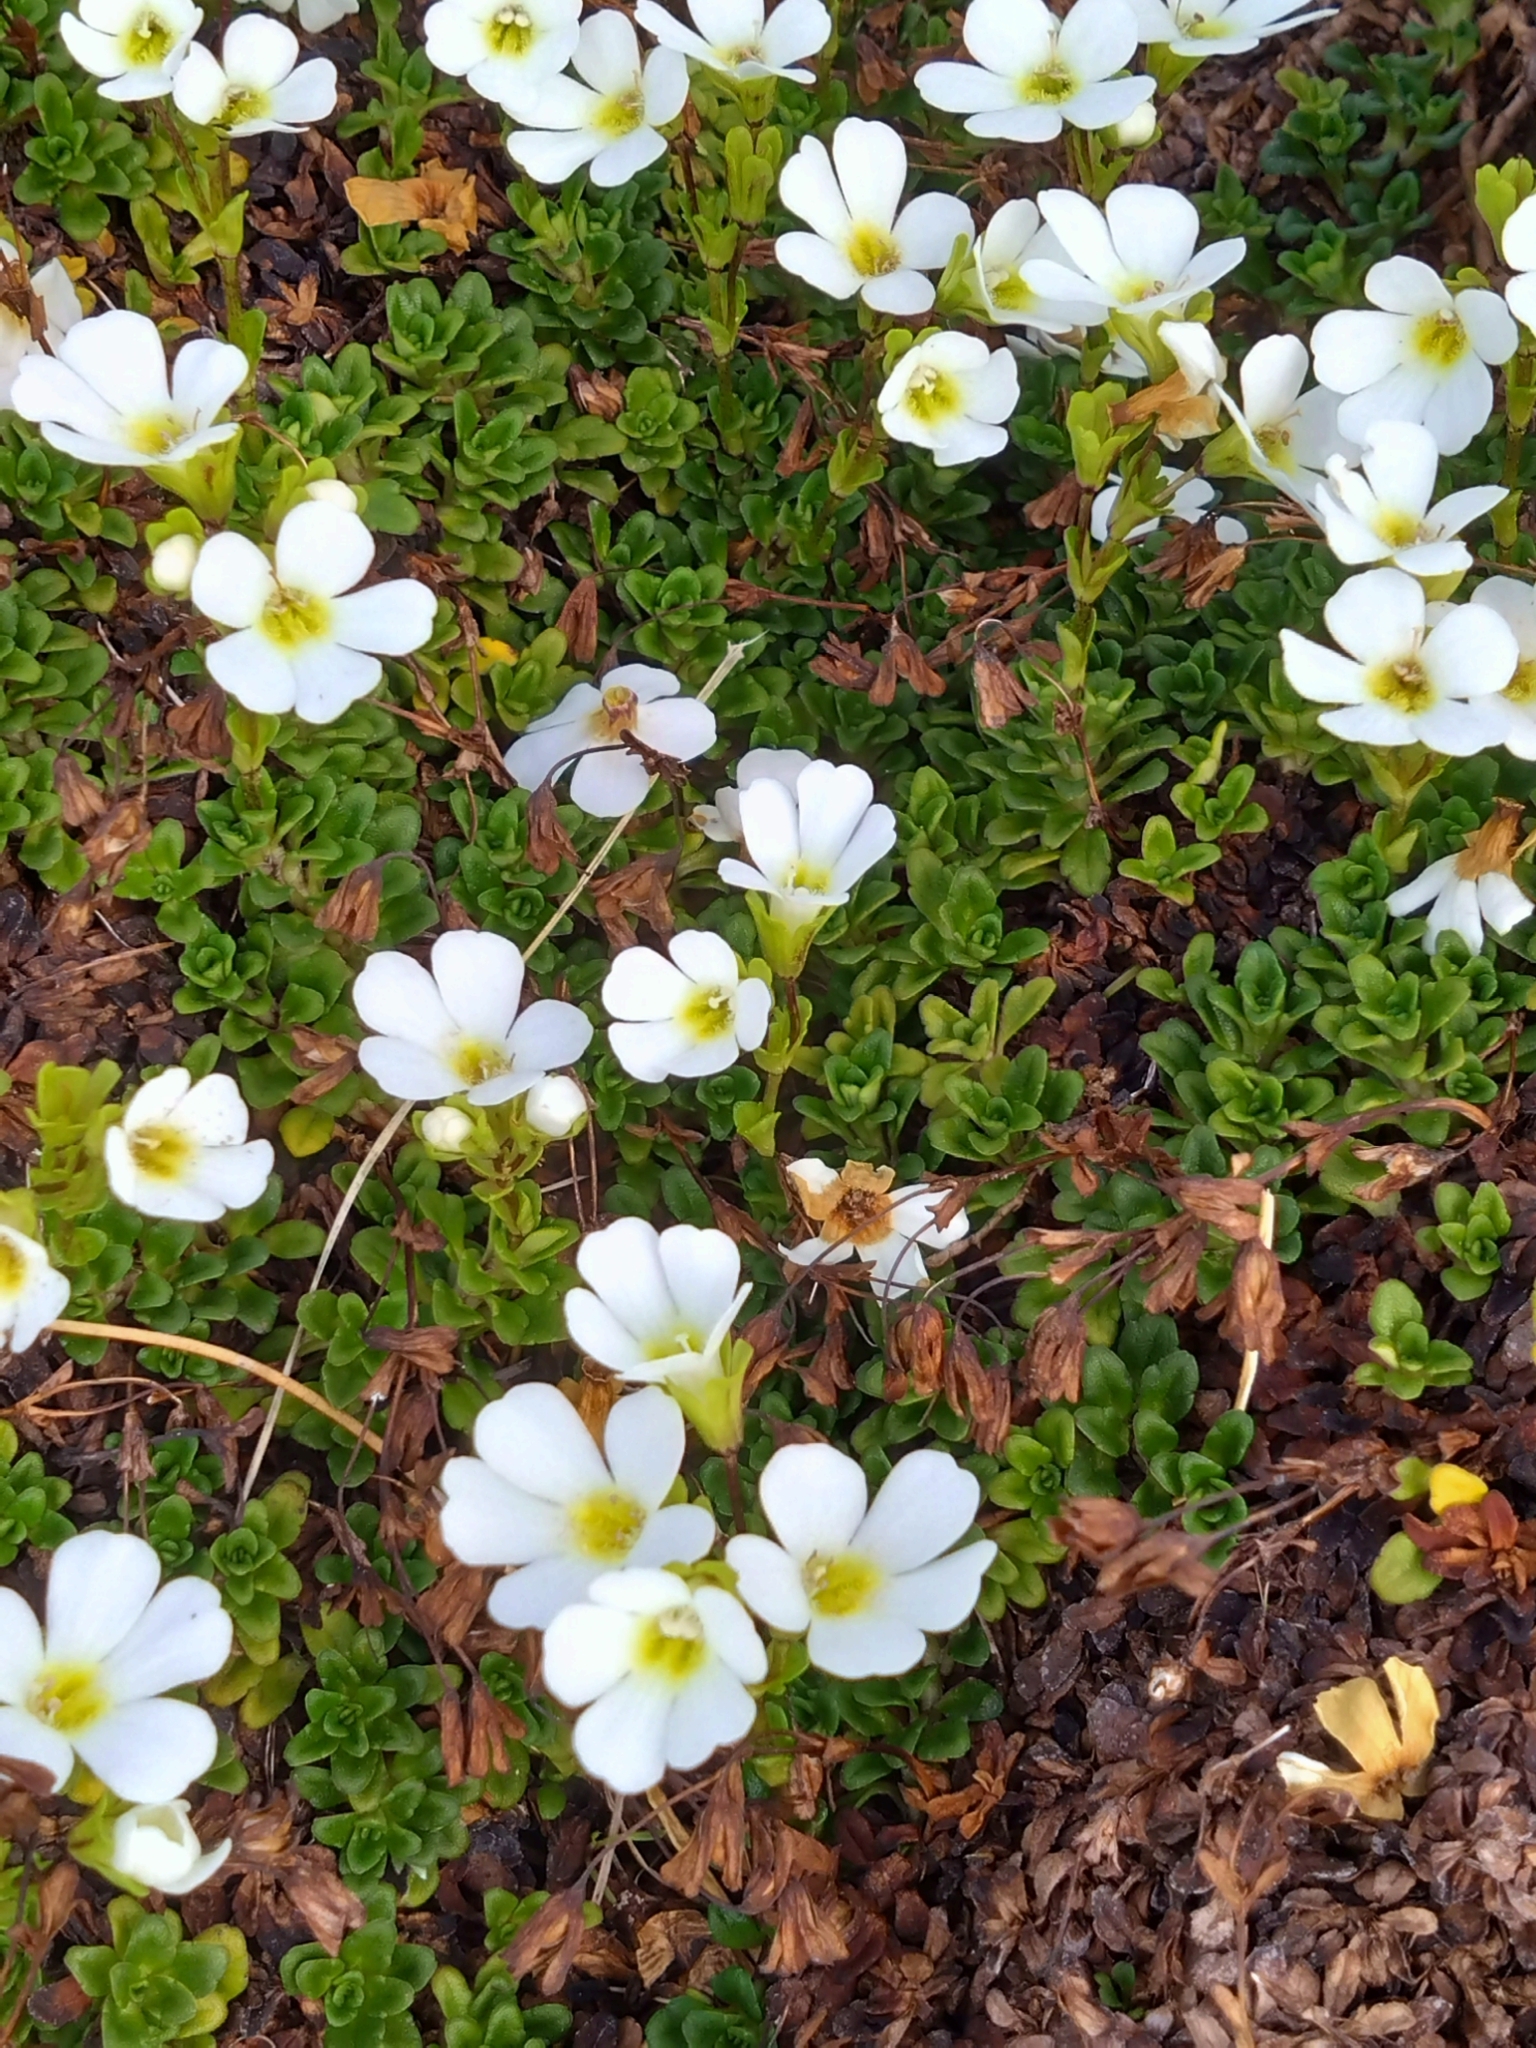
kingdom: Plantae
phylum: Tracheophyta
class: Magnoliopsida
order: Lamiales
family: Plantaginaceae
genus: Ourisia
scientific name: Ourisia caespitosa
